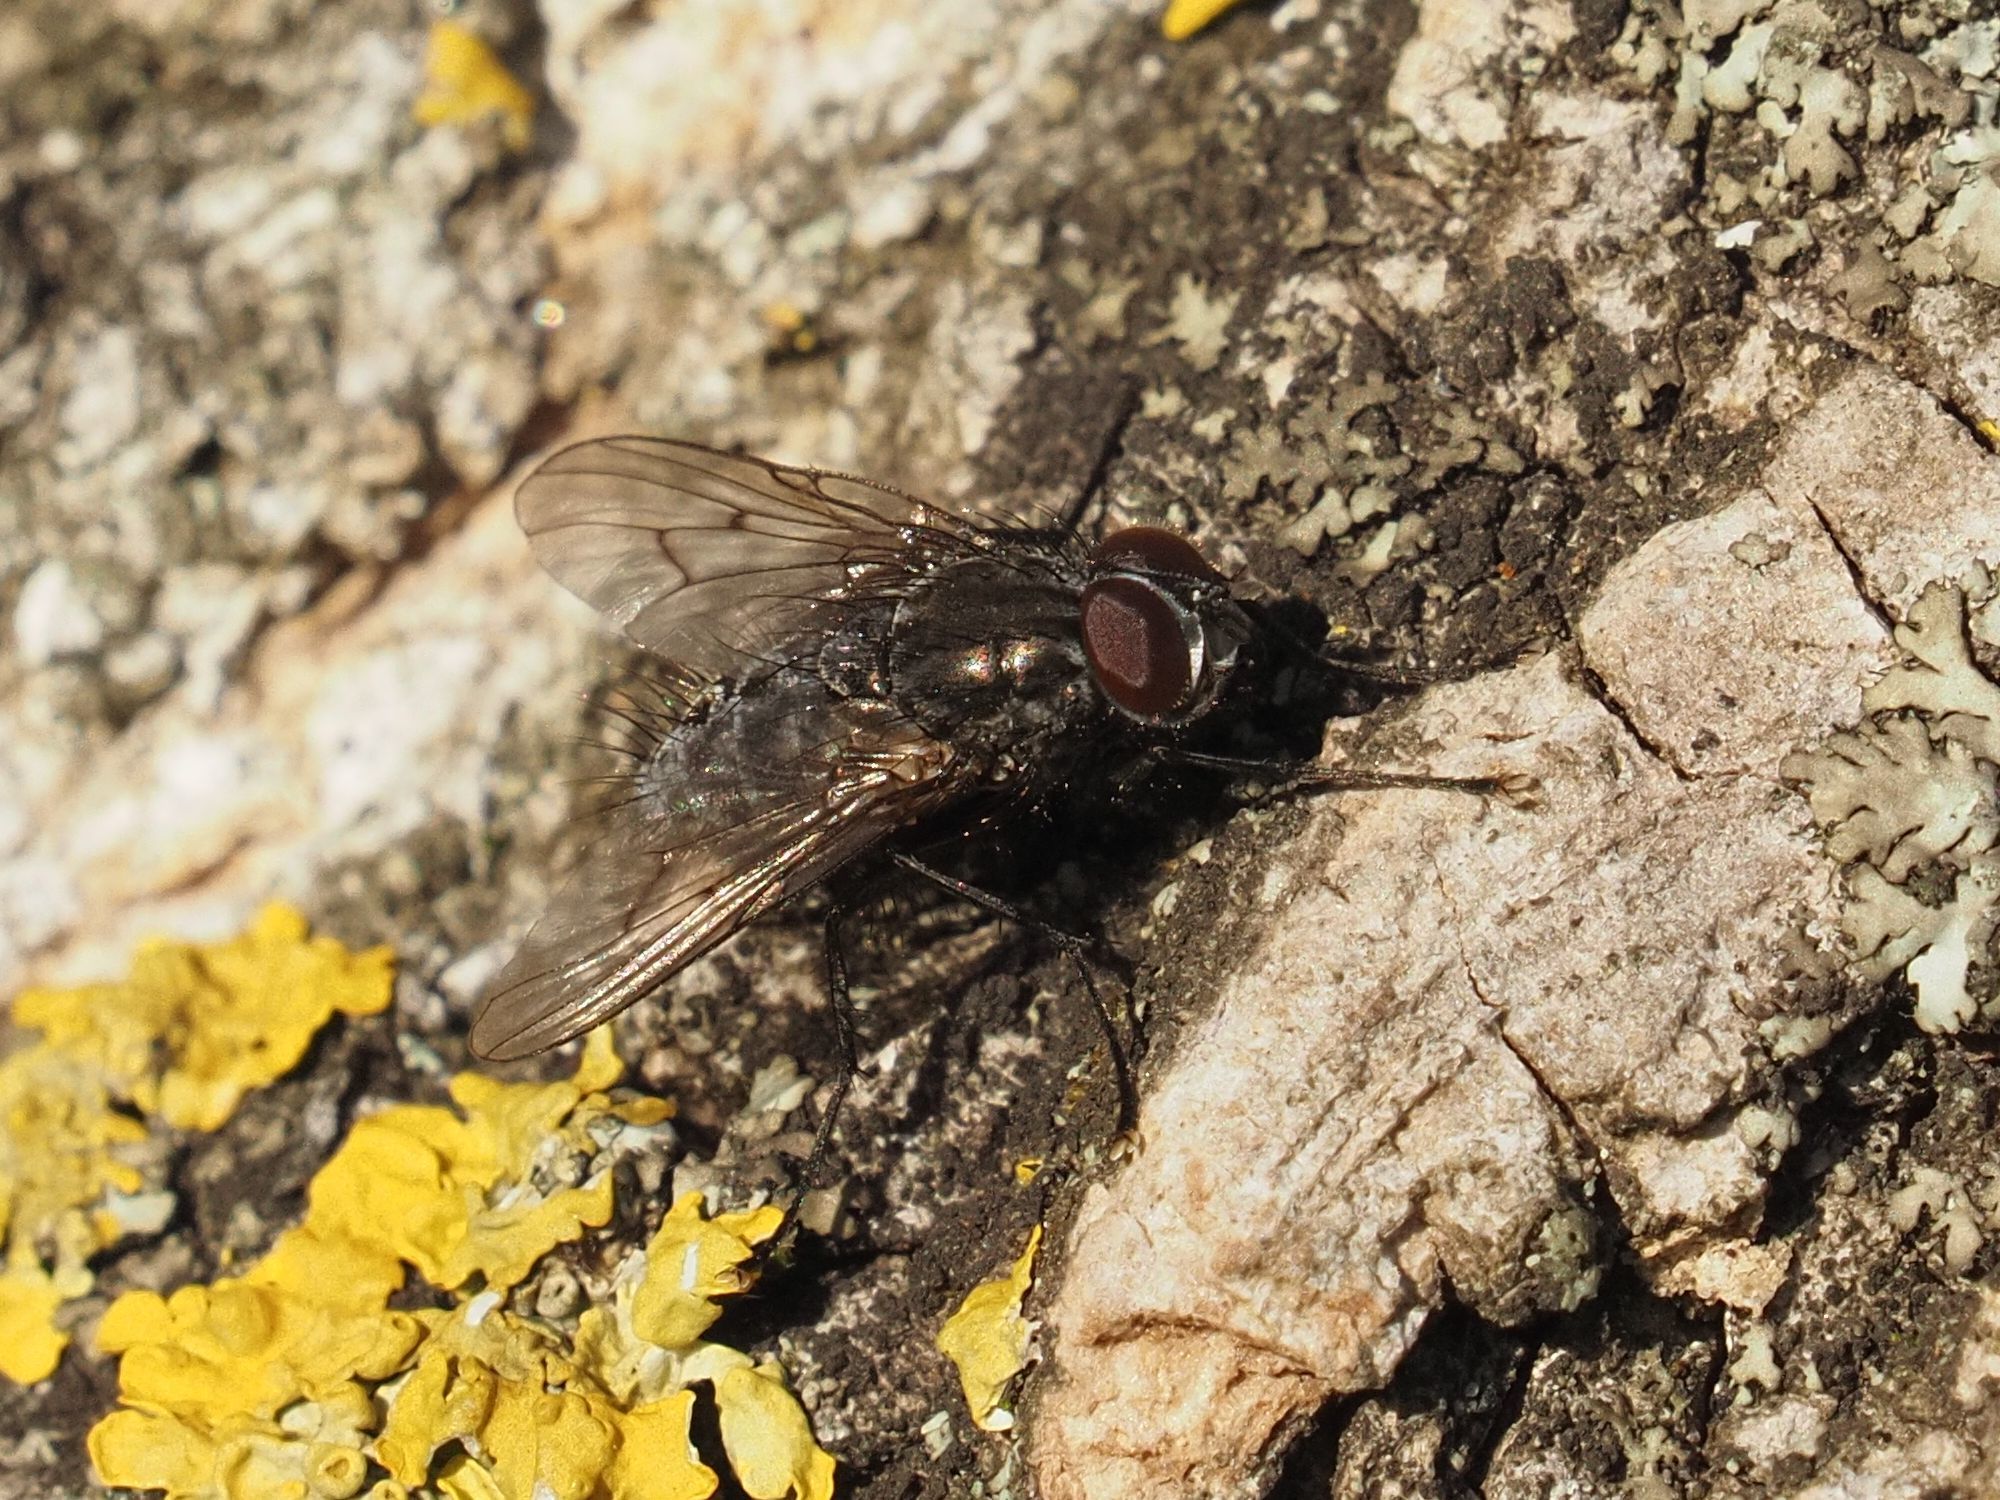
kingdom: Animalia
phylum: Arthropoda
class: Insecta
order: Diptera
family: Muscidae
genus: Helina
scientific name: Helina evecta
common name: Muscid fly
